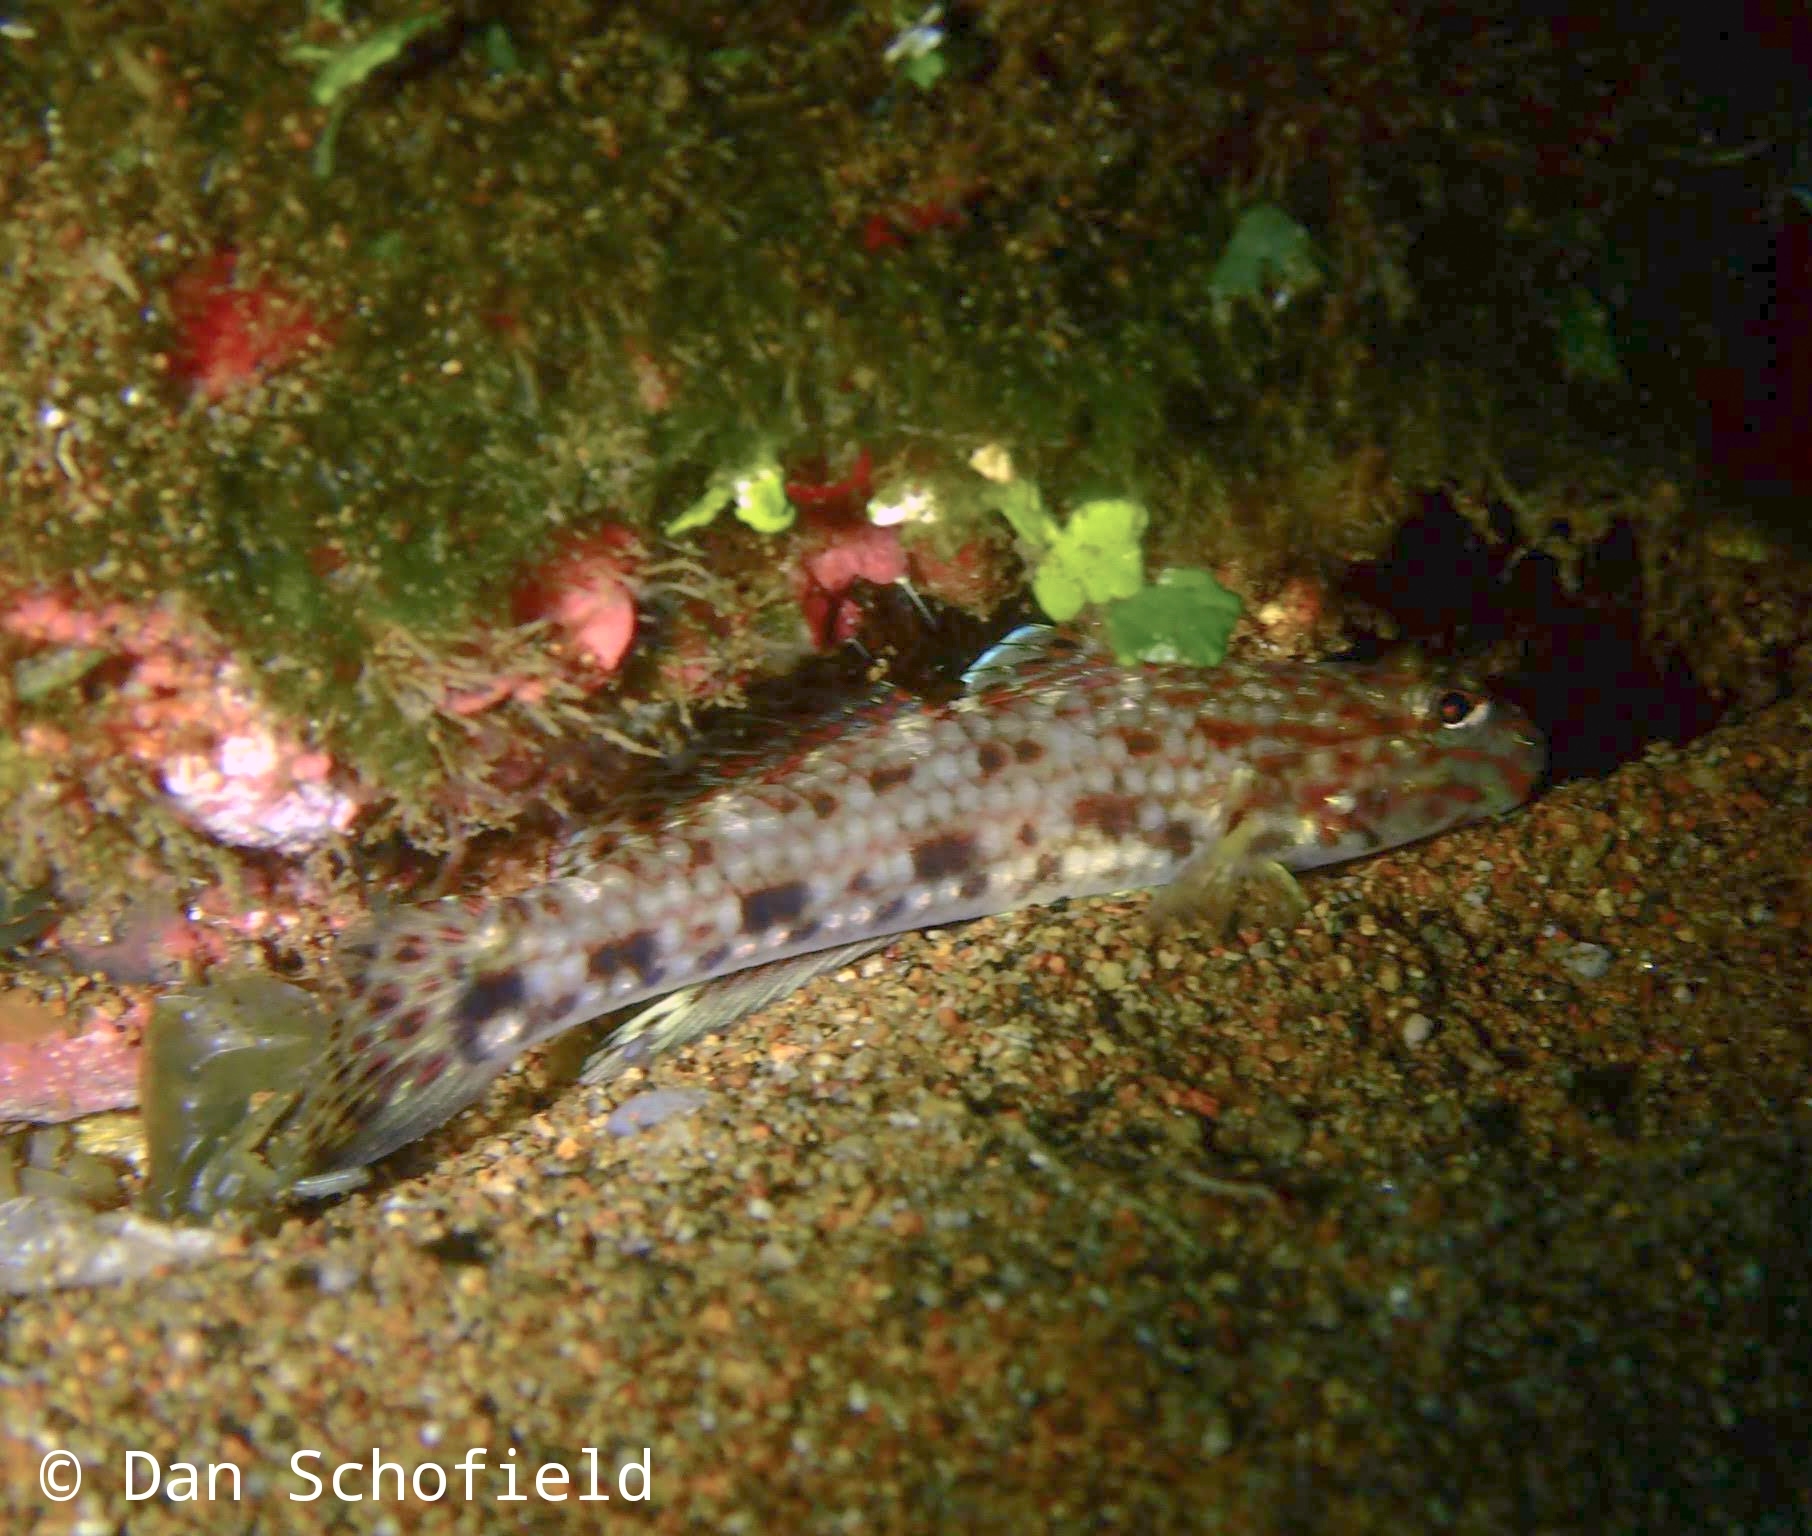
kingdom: Animalia
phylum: Chordata
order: Perciformes
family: Gobiidae
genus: Istigobius
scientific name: Istigobius decoratus
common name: Decorated goby
